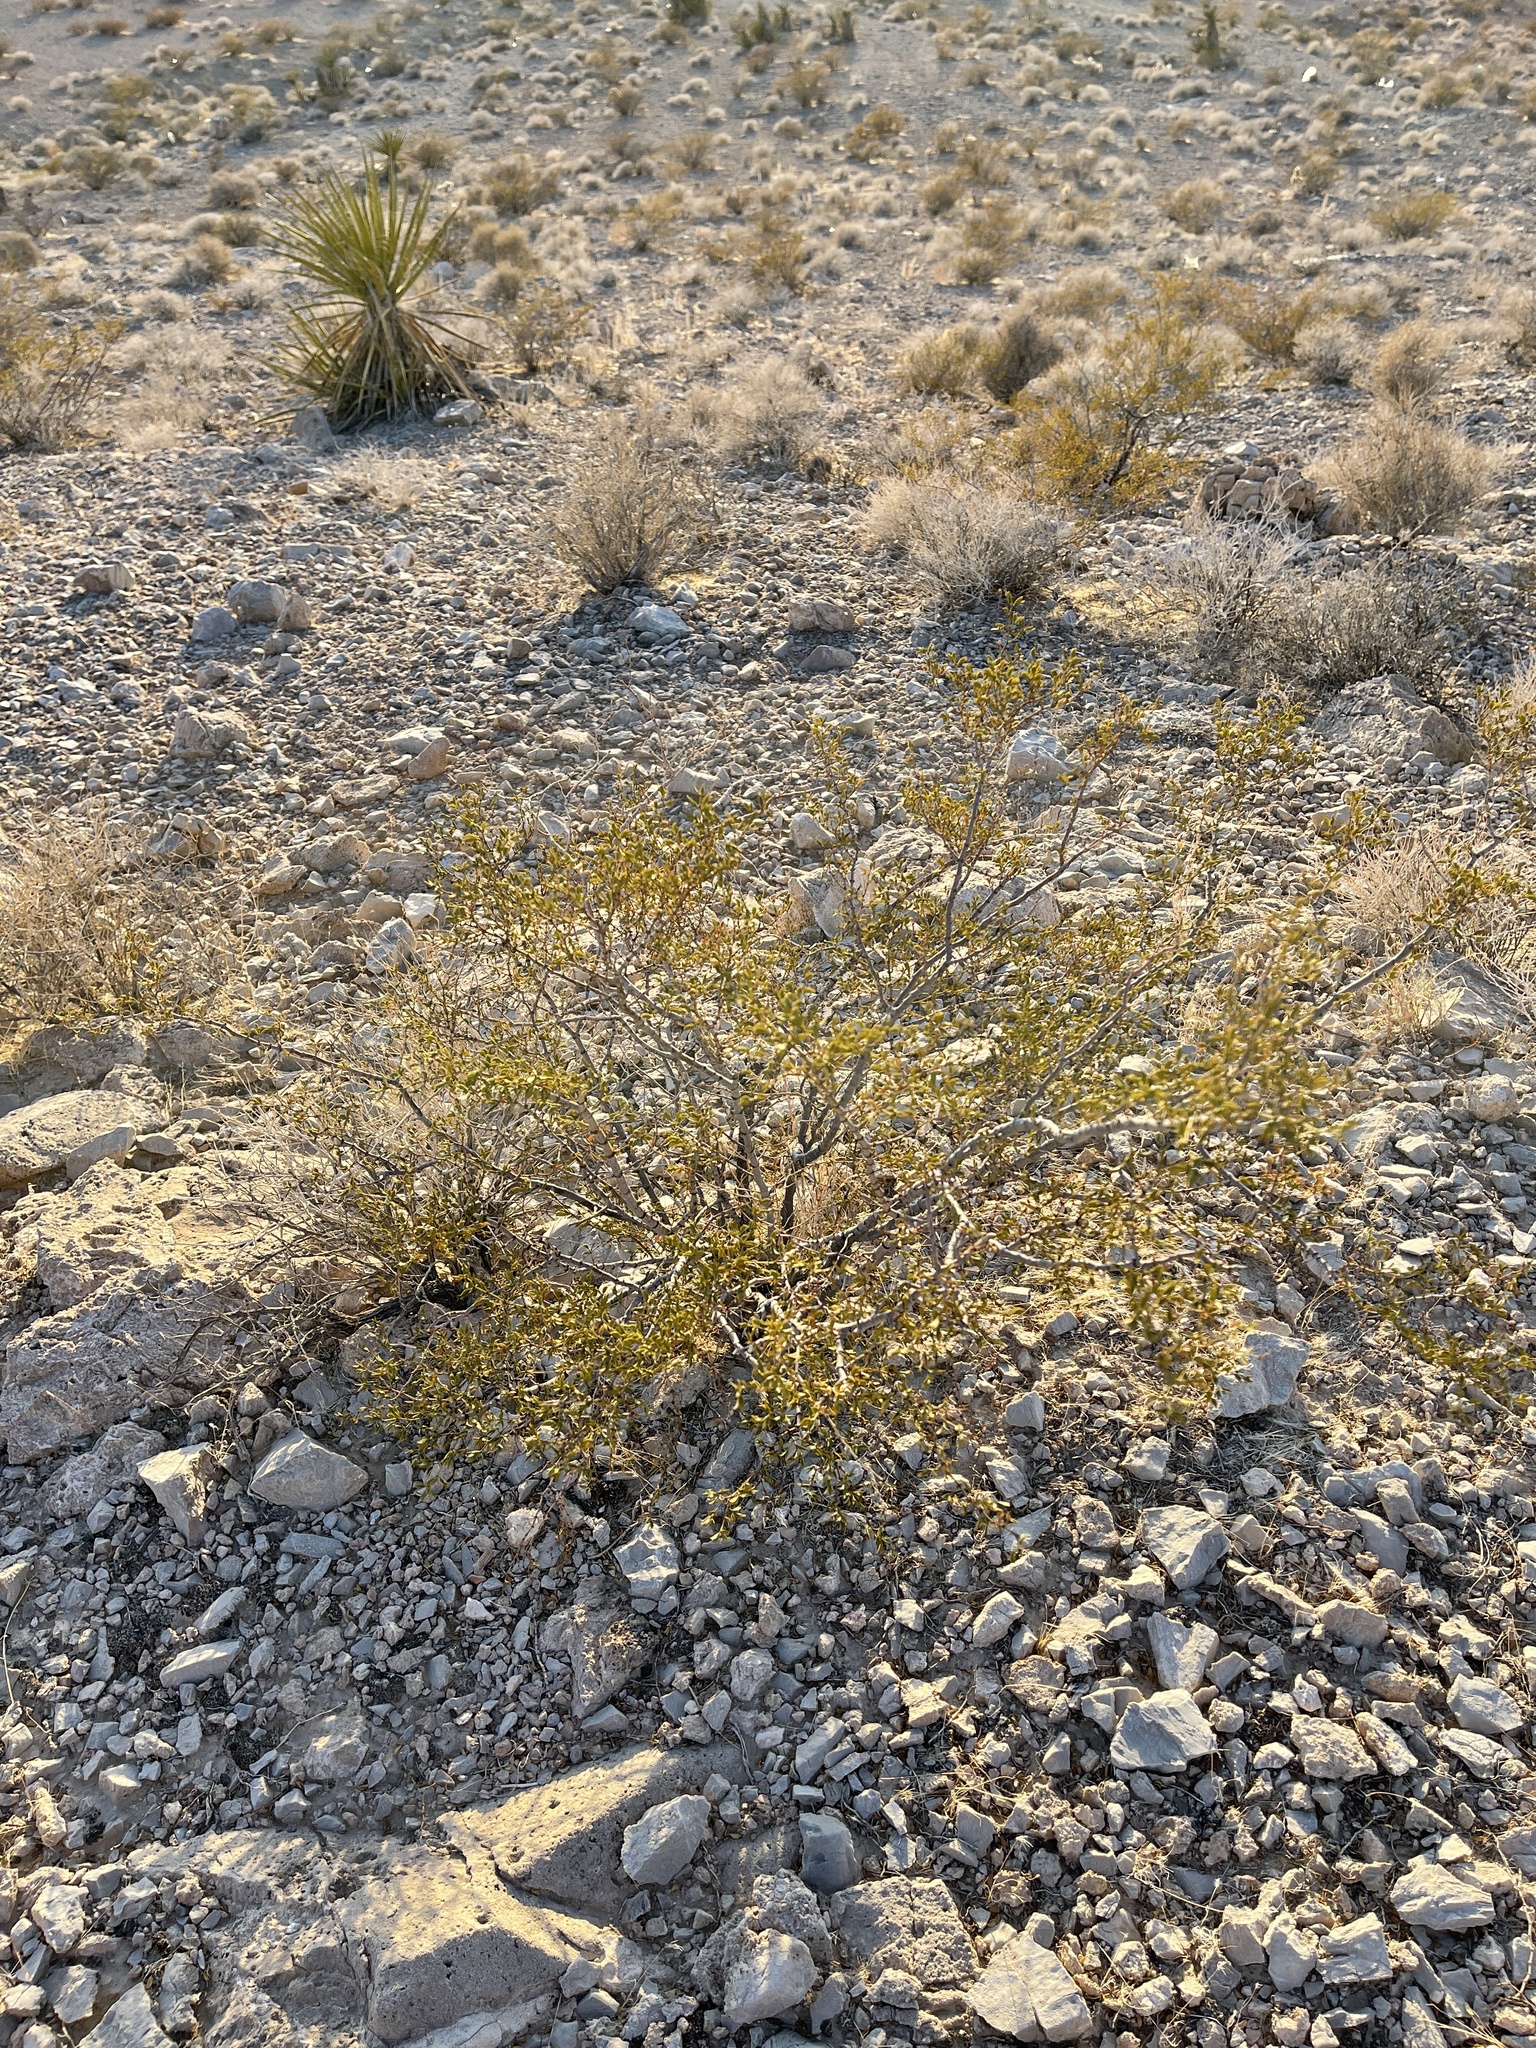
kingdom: Plantae
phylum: Tracheophyta
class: Magnoliopsida
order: Zygophyllales
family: Zygophyllaceae
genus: Larrea
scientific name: Larrea tridentata
